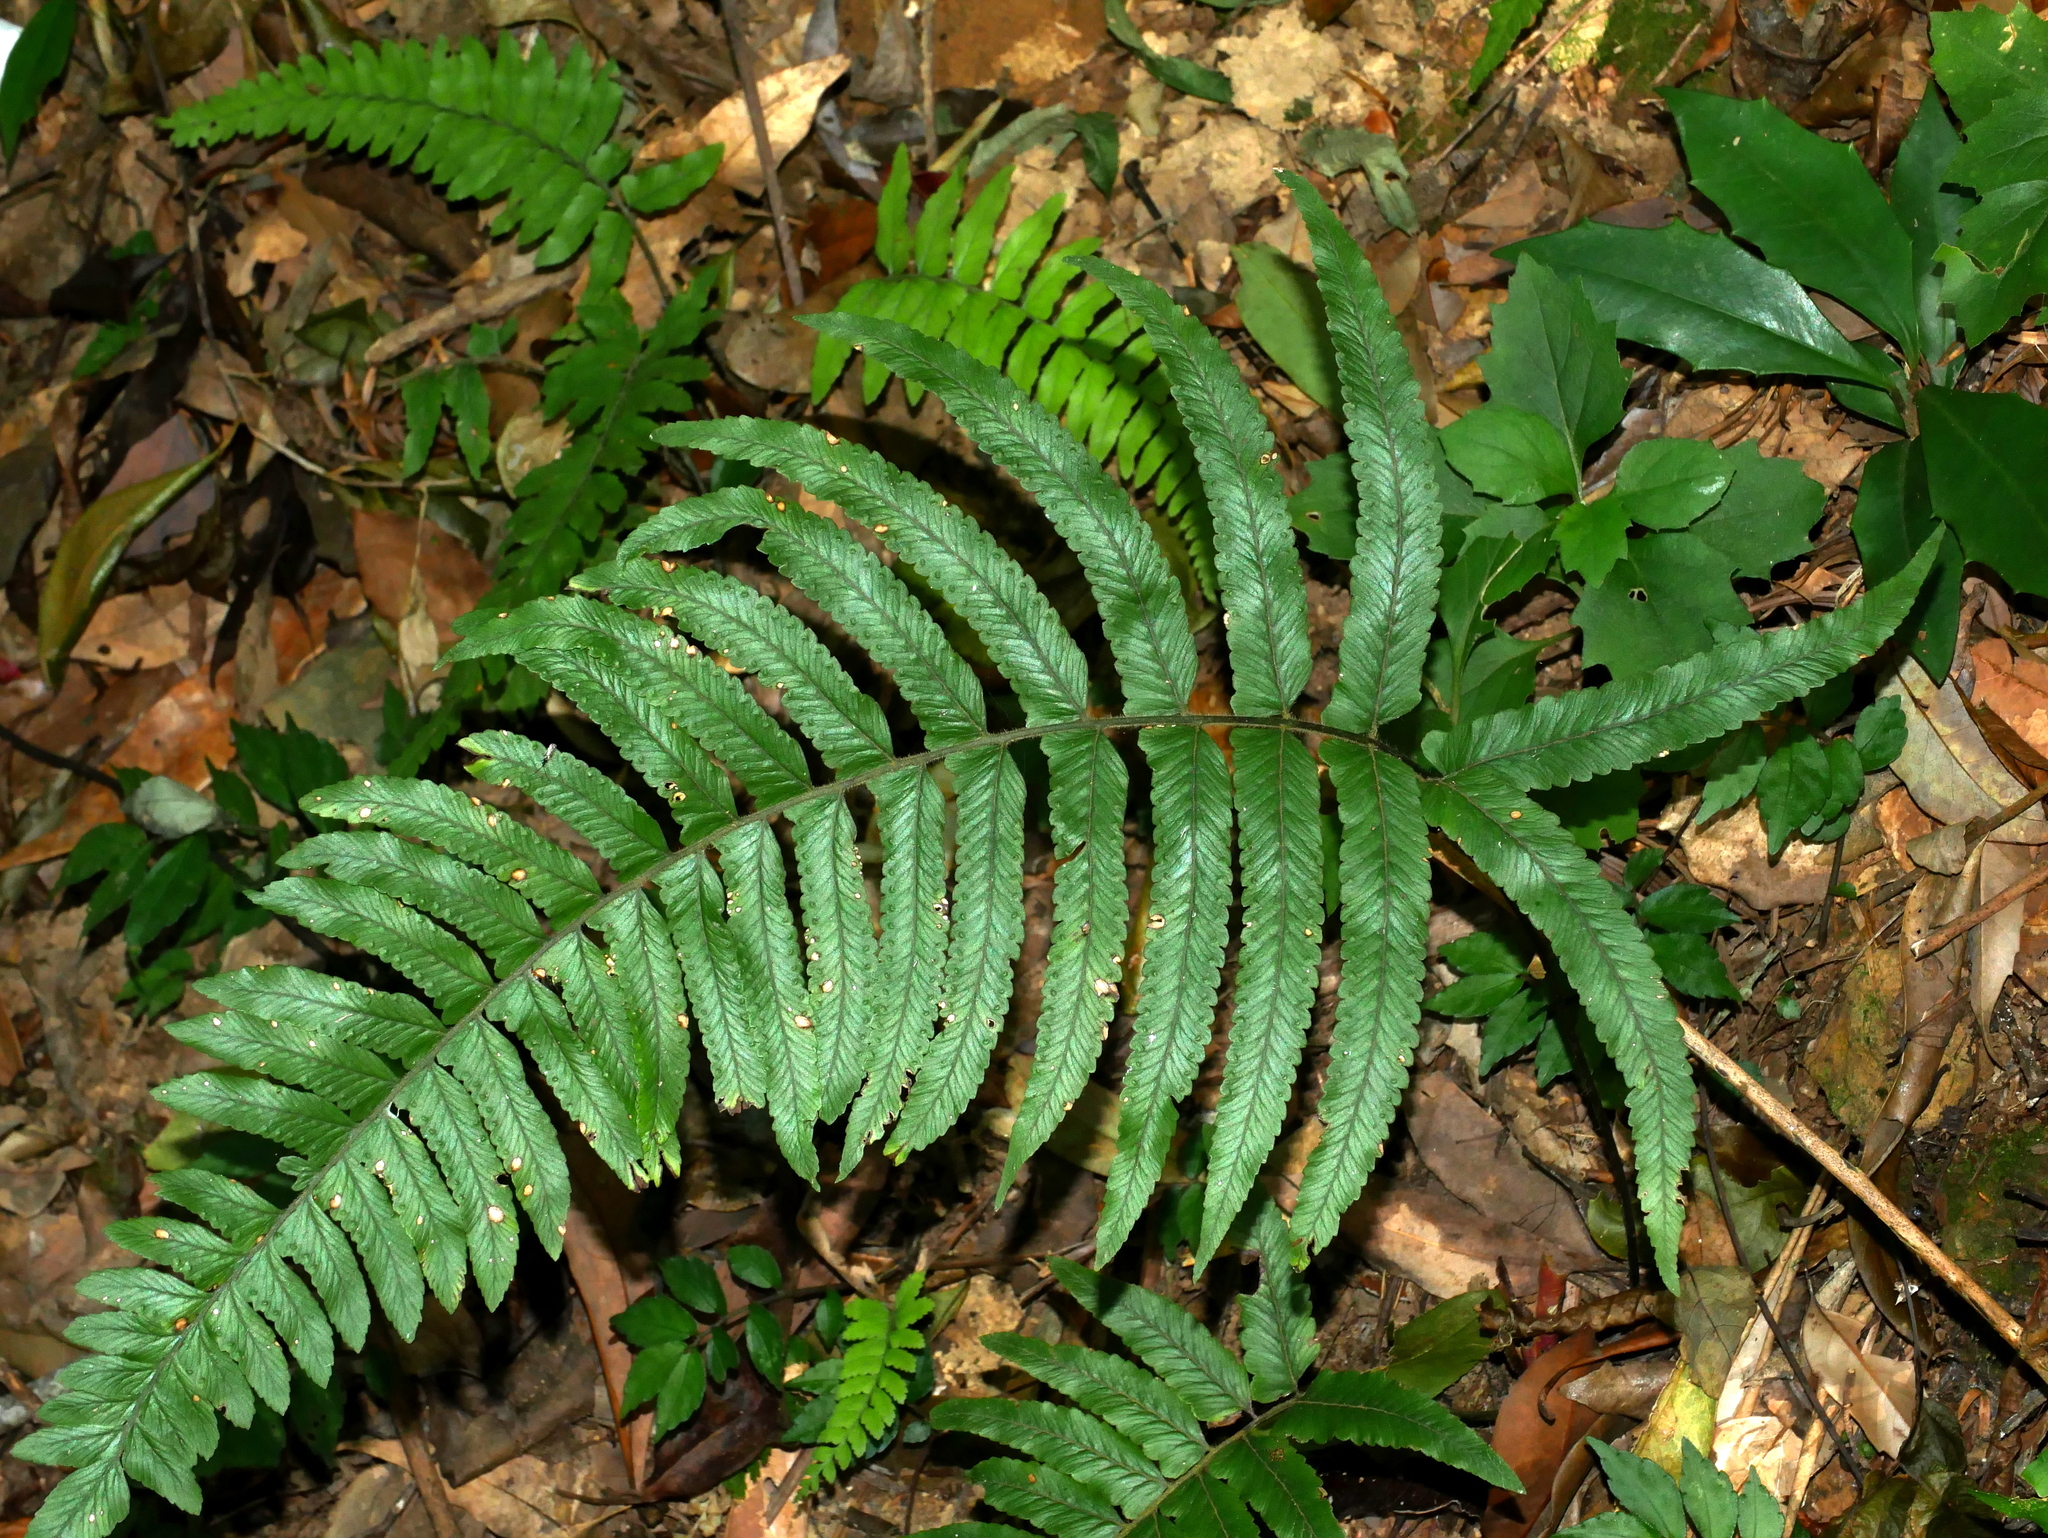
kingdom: Plantae
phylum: Tracheophyta
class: Polypodiopsida
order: Polypodiales
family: Dennstaedtiaceae
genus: Microlepia
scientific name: Microlepia marginata
